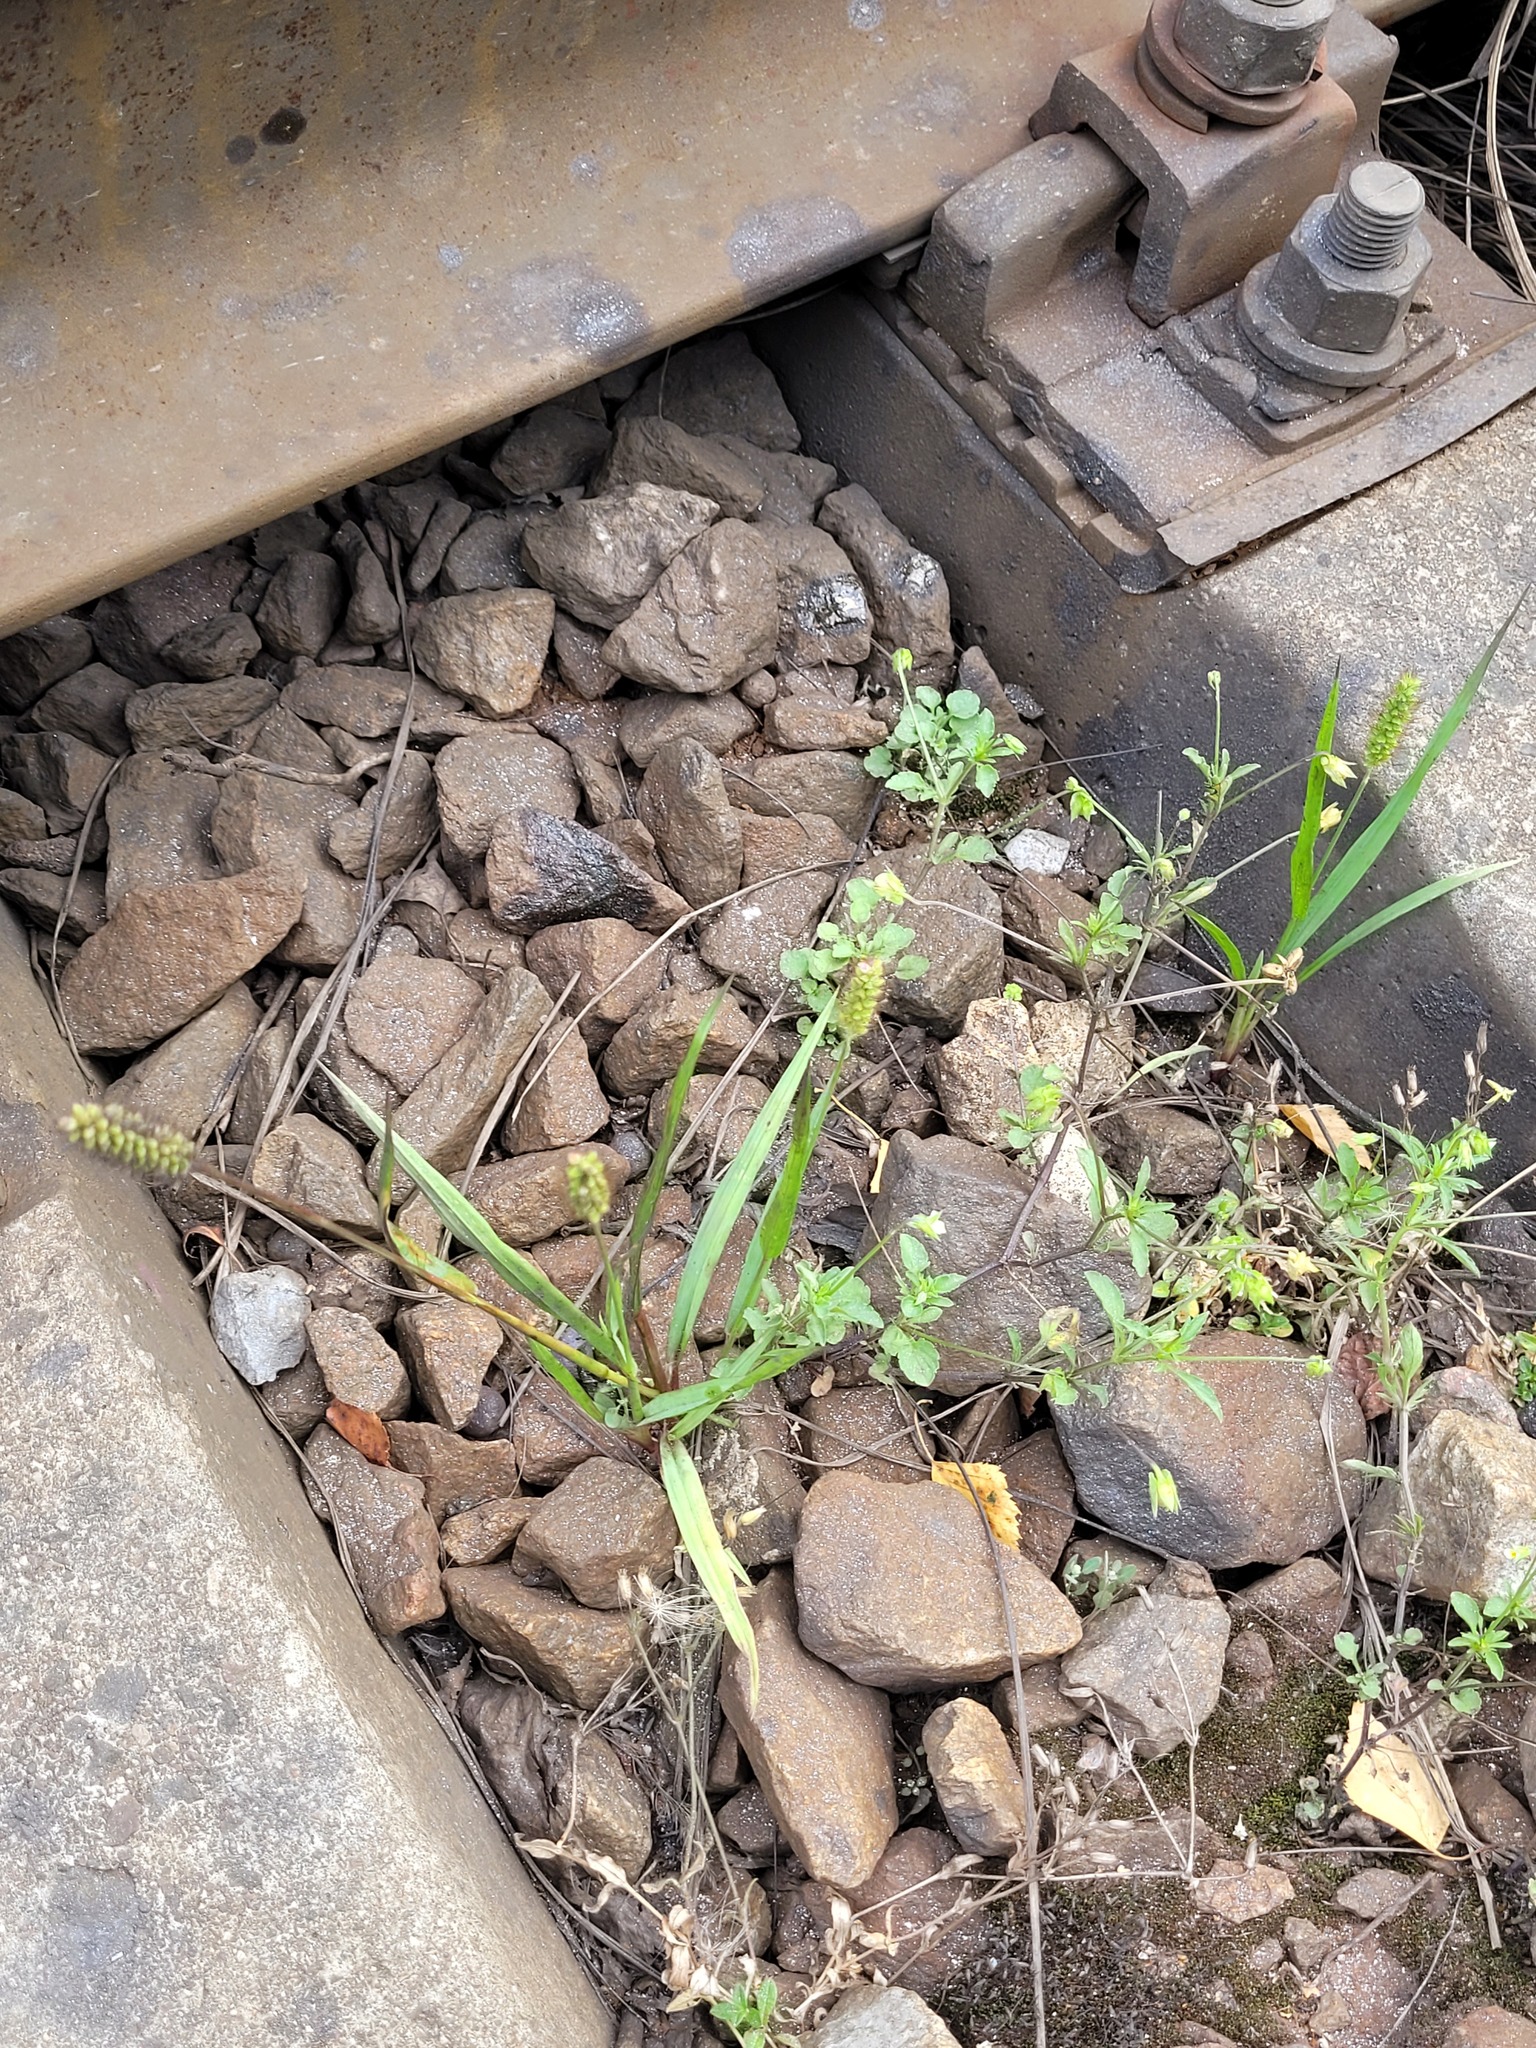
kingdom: Plantae
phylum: Tracheophyta
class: Liliopsida
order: Poales
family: Poaceae
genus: Setaria
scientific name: Setaria pumila
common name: Yellow bristle-grass
